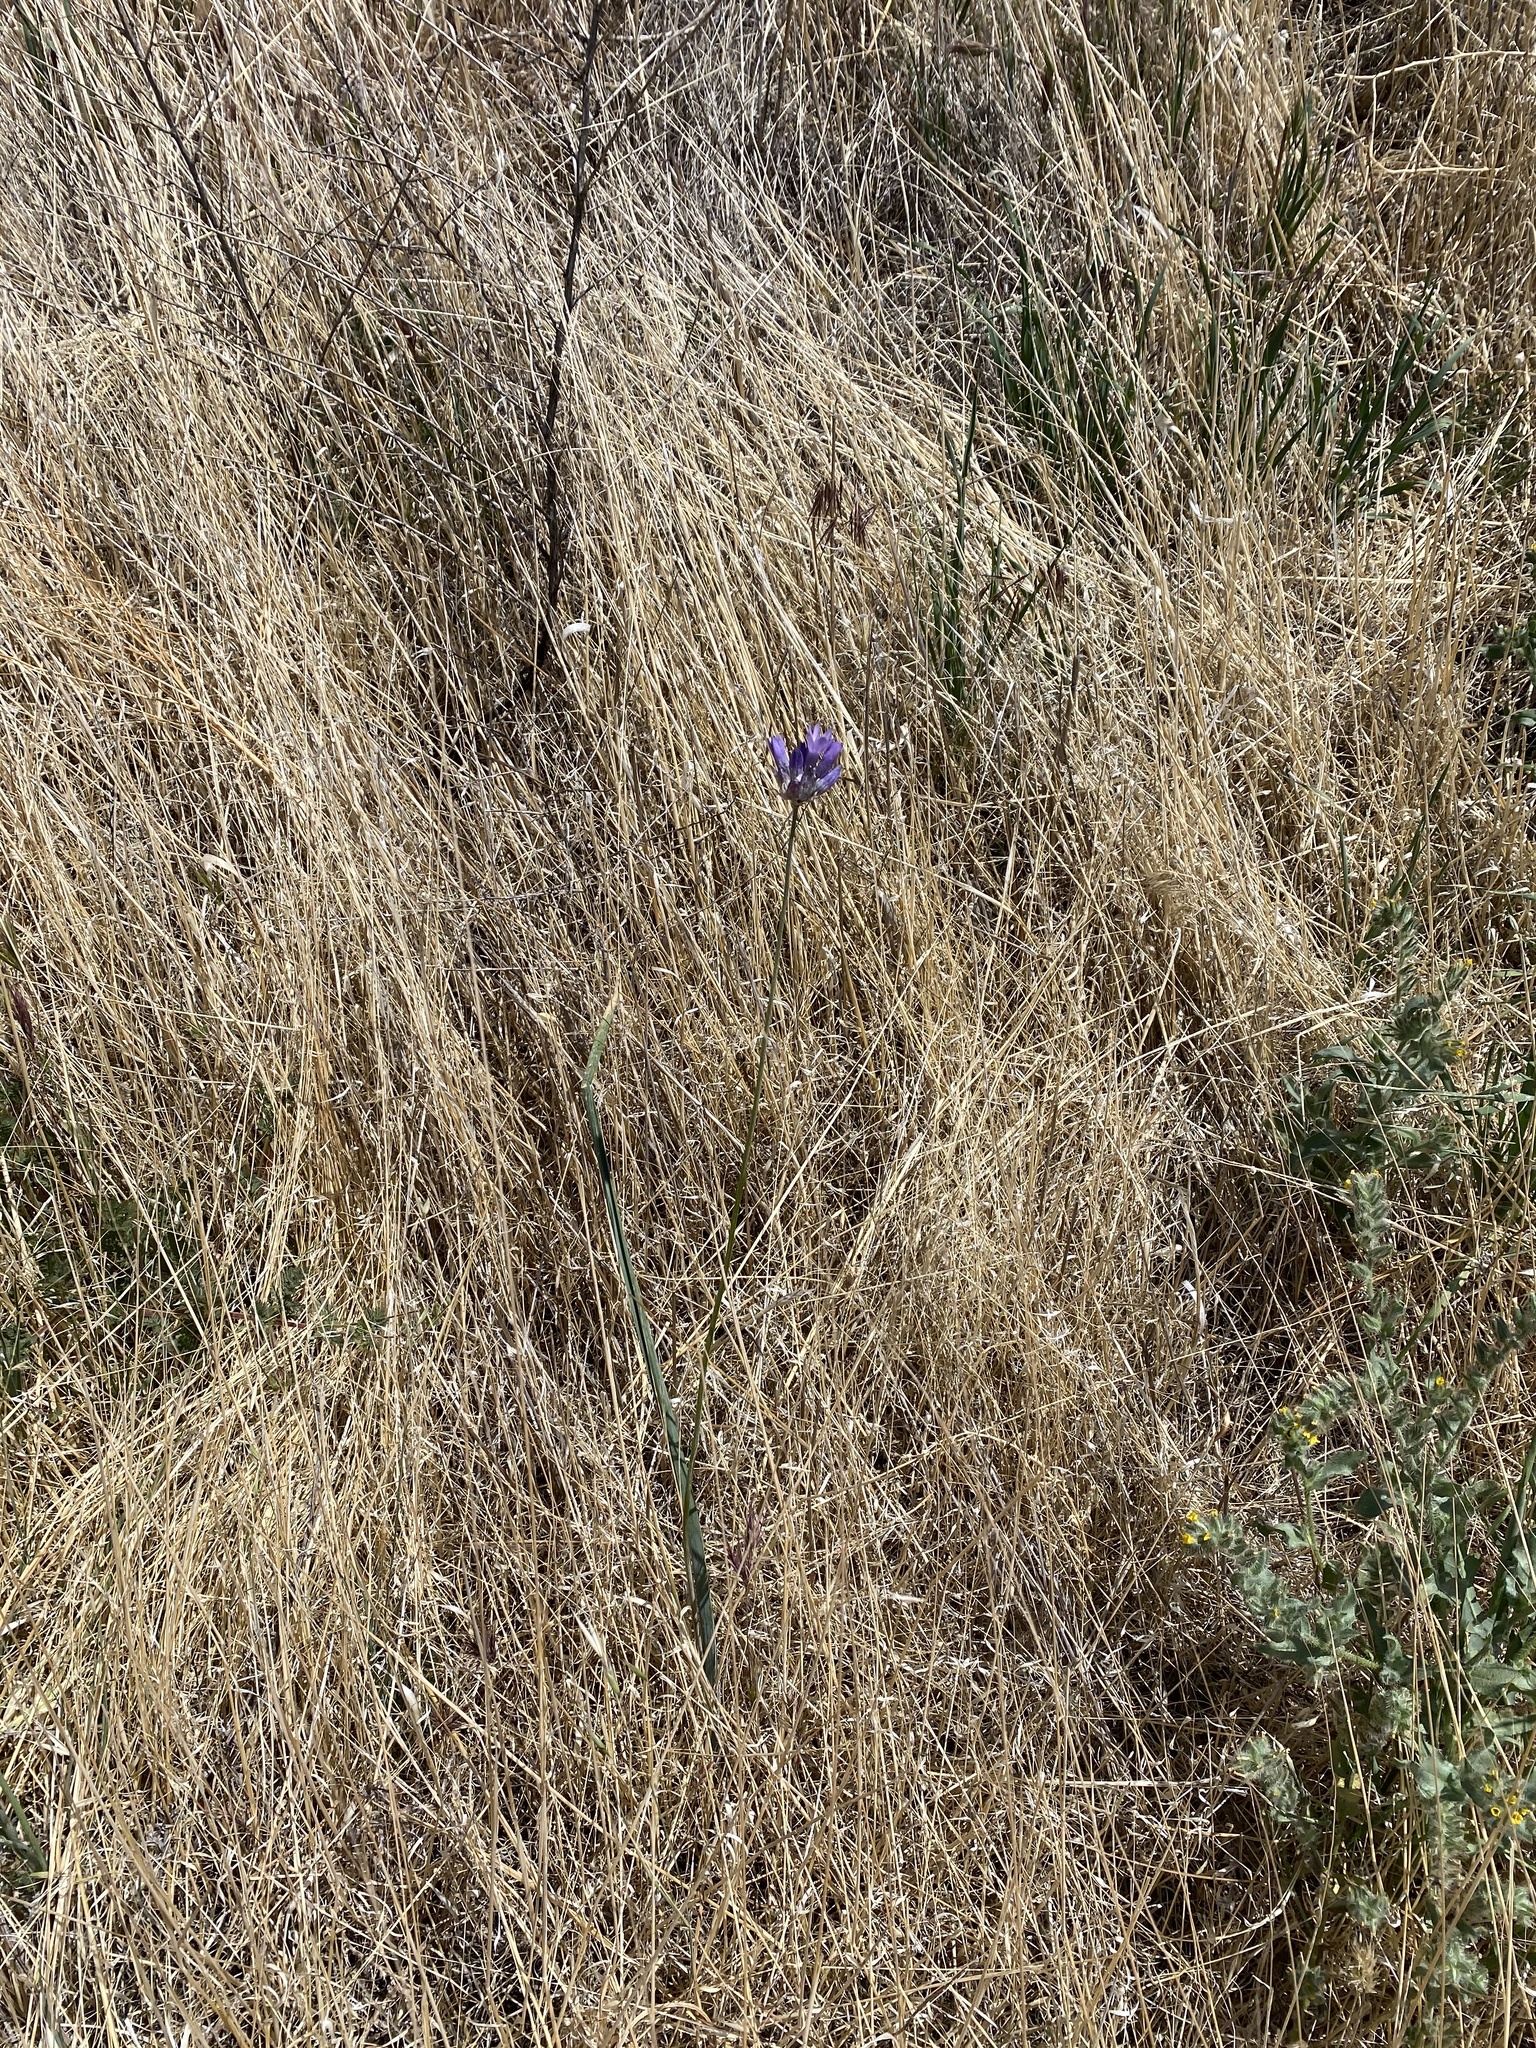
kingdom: Plantae
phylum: Tracheophyta
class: Liliopsida
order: Asparagales
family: Asparagaceae
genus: Dipterostemon
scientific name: Dipterostemon capitatus
